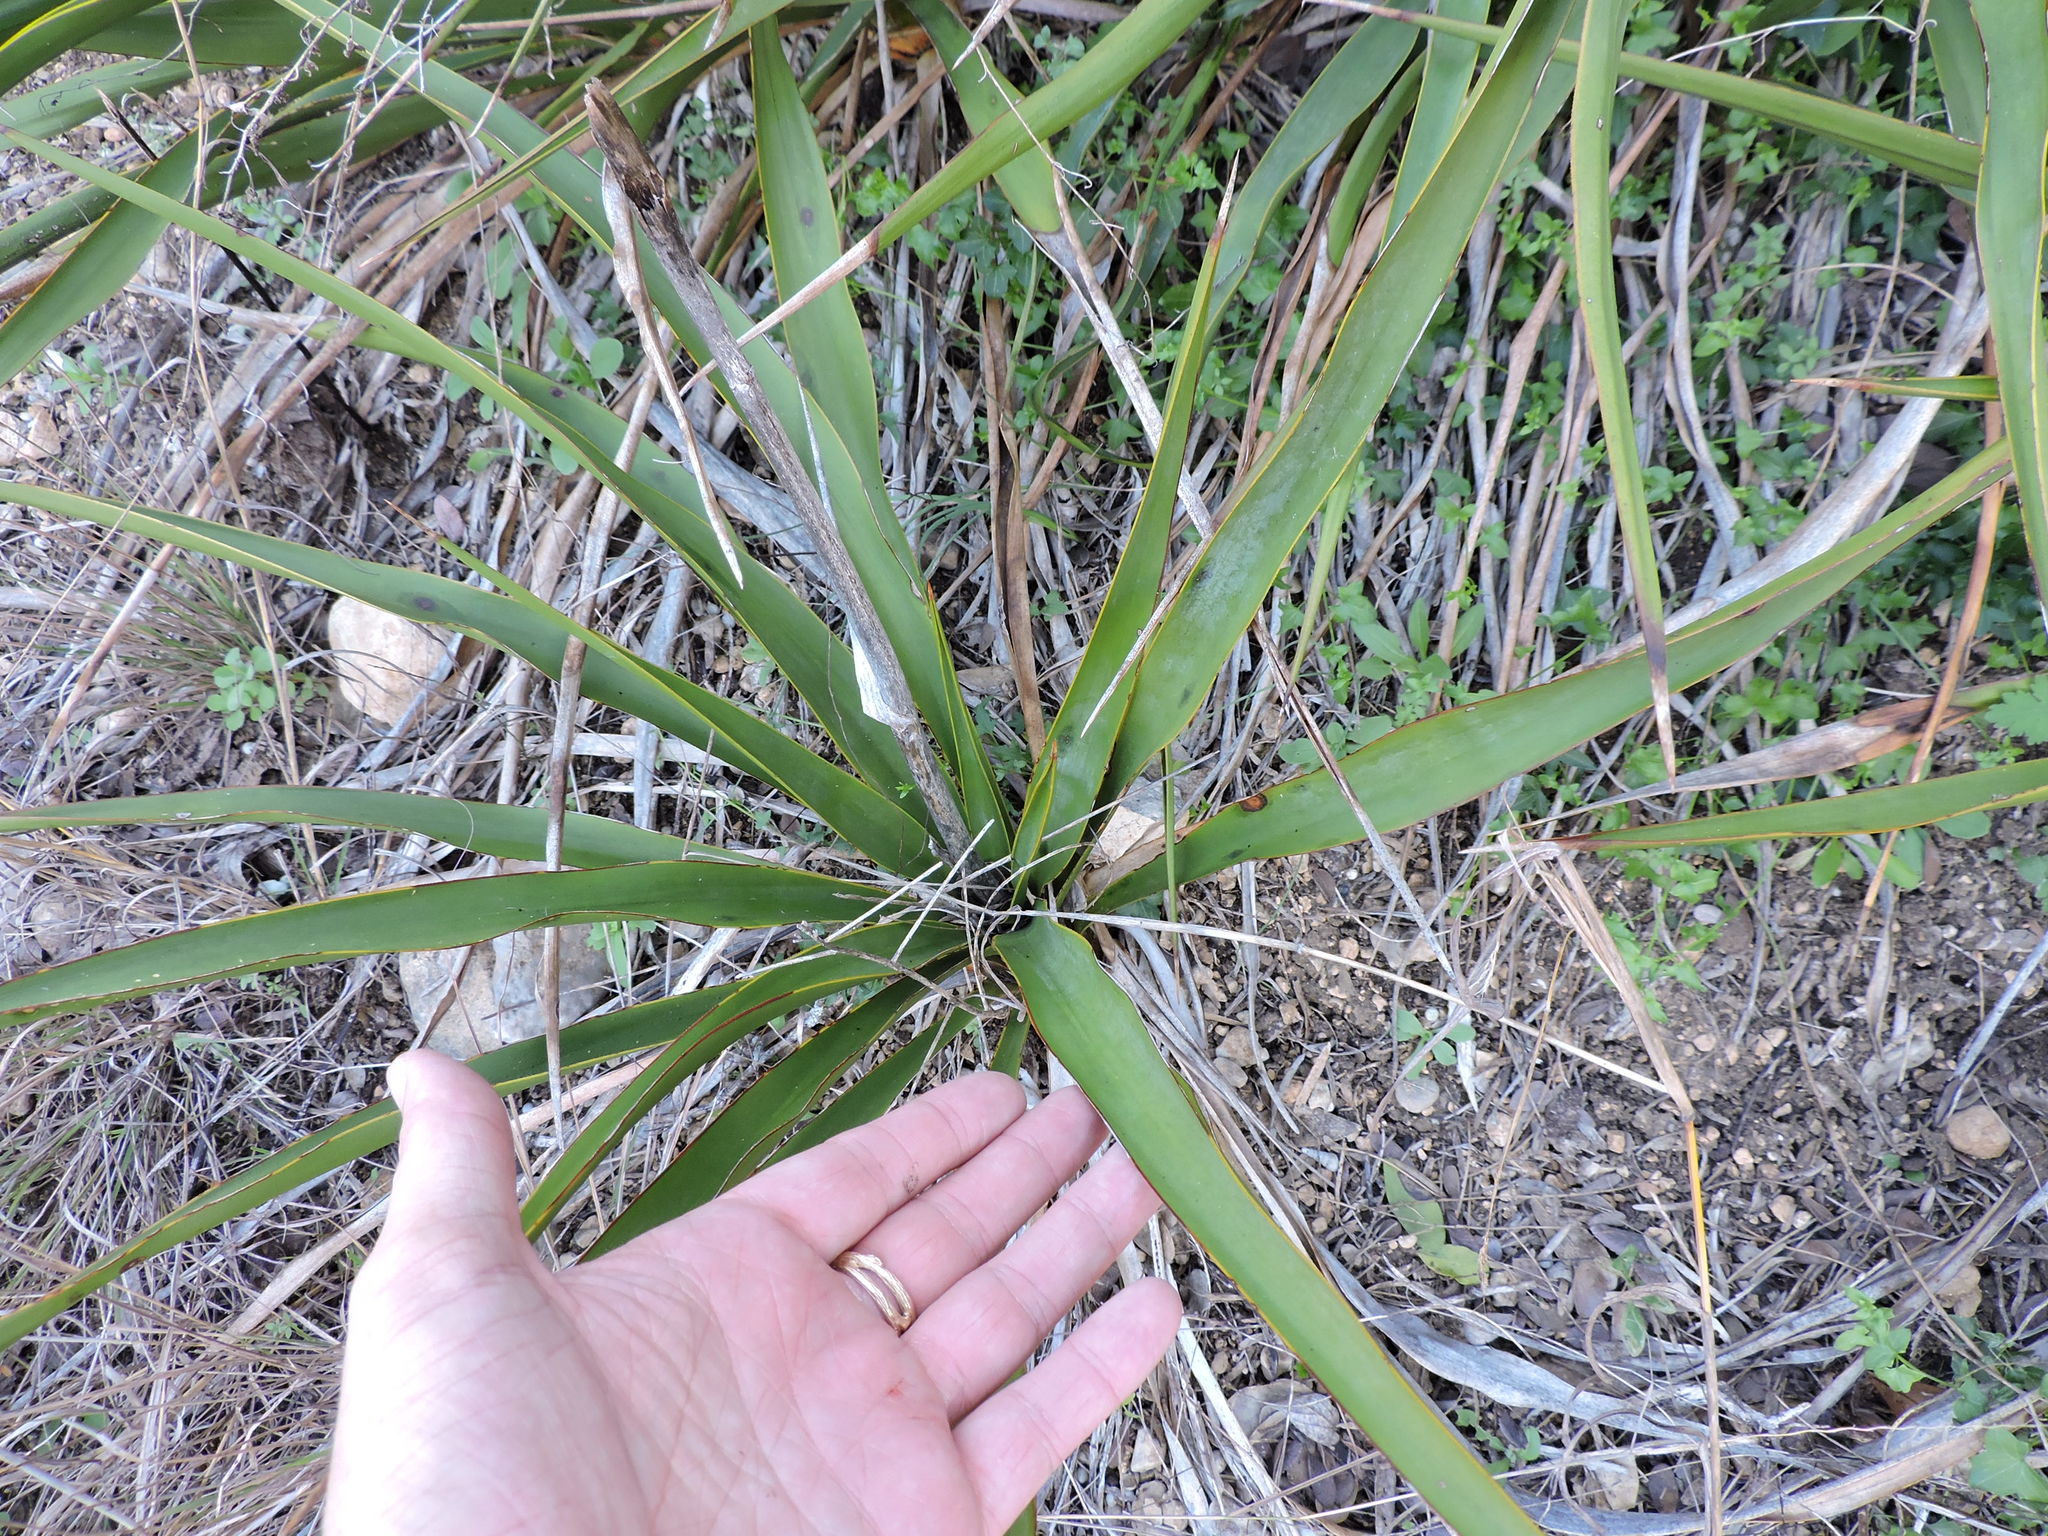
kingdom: Plantae
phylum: Tracheophyta
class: Liliopsida
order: Asparagales
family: Asparagaceae
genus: Yucca
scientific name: Yucca rupicola
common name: Twisted-leaf spanish-dagger
